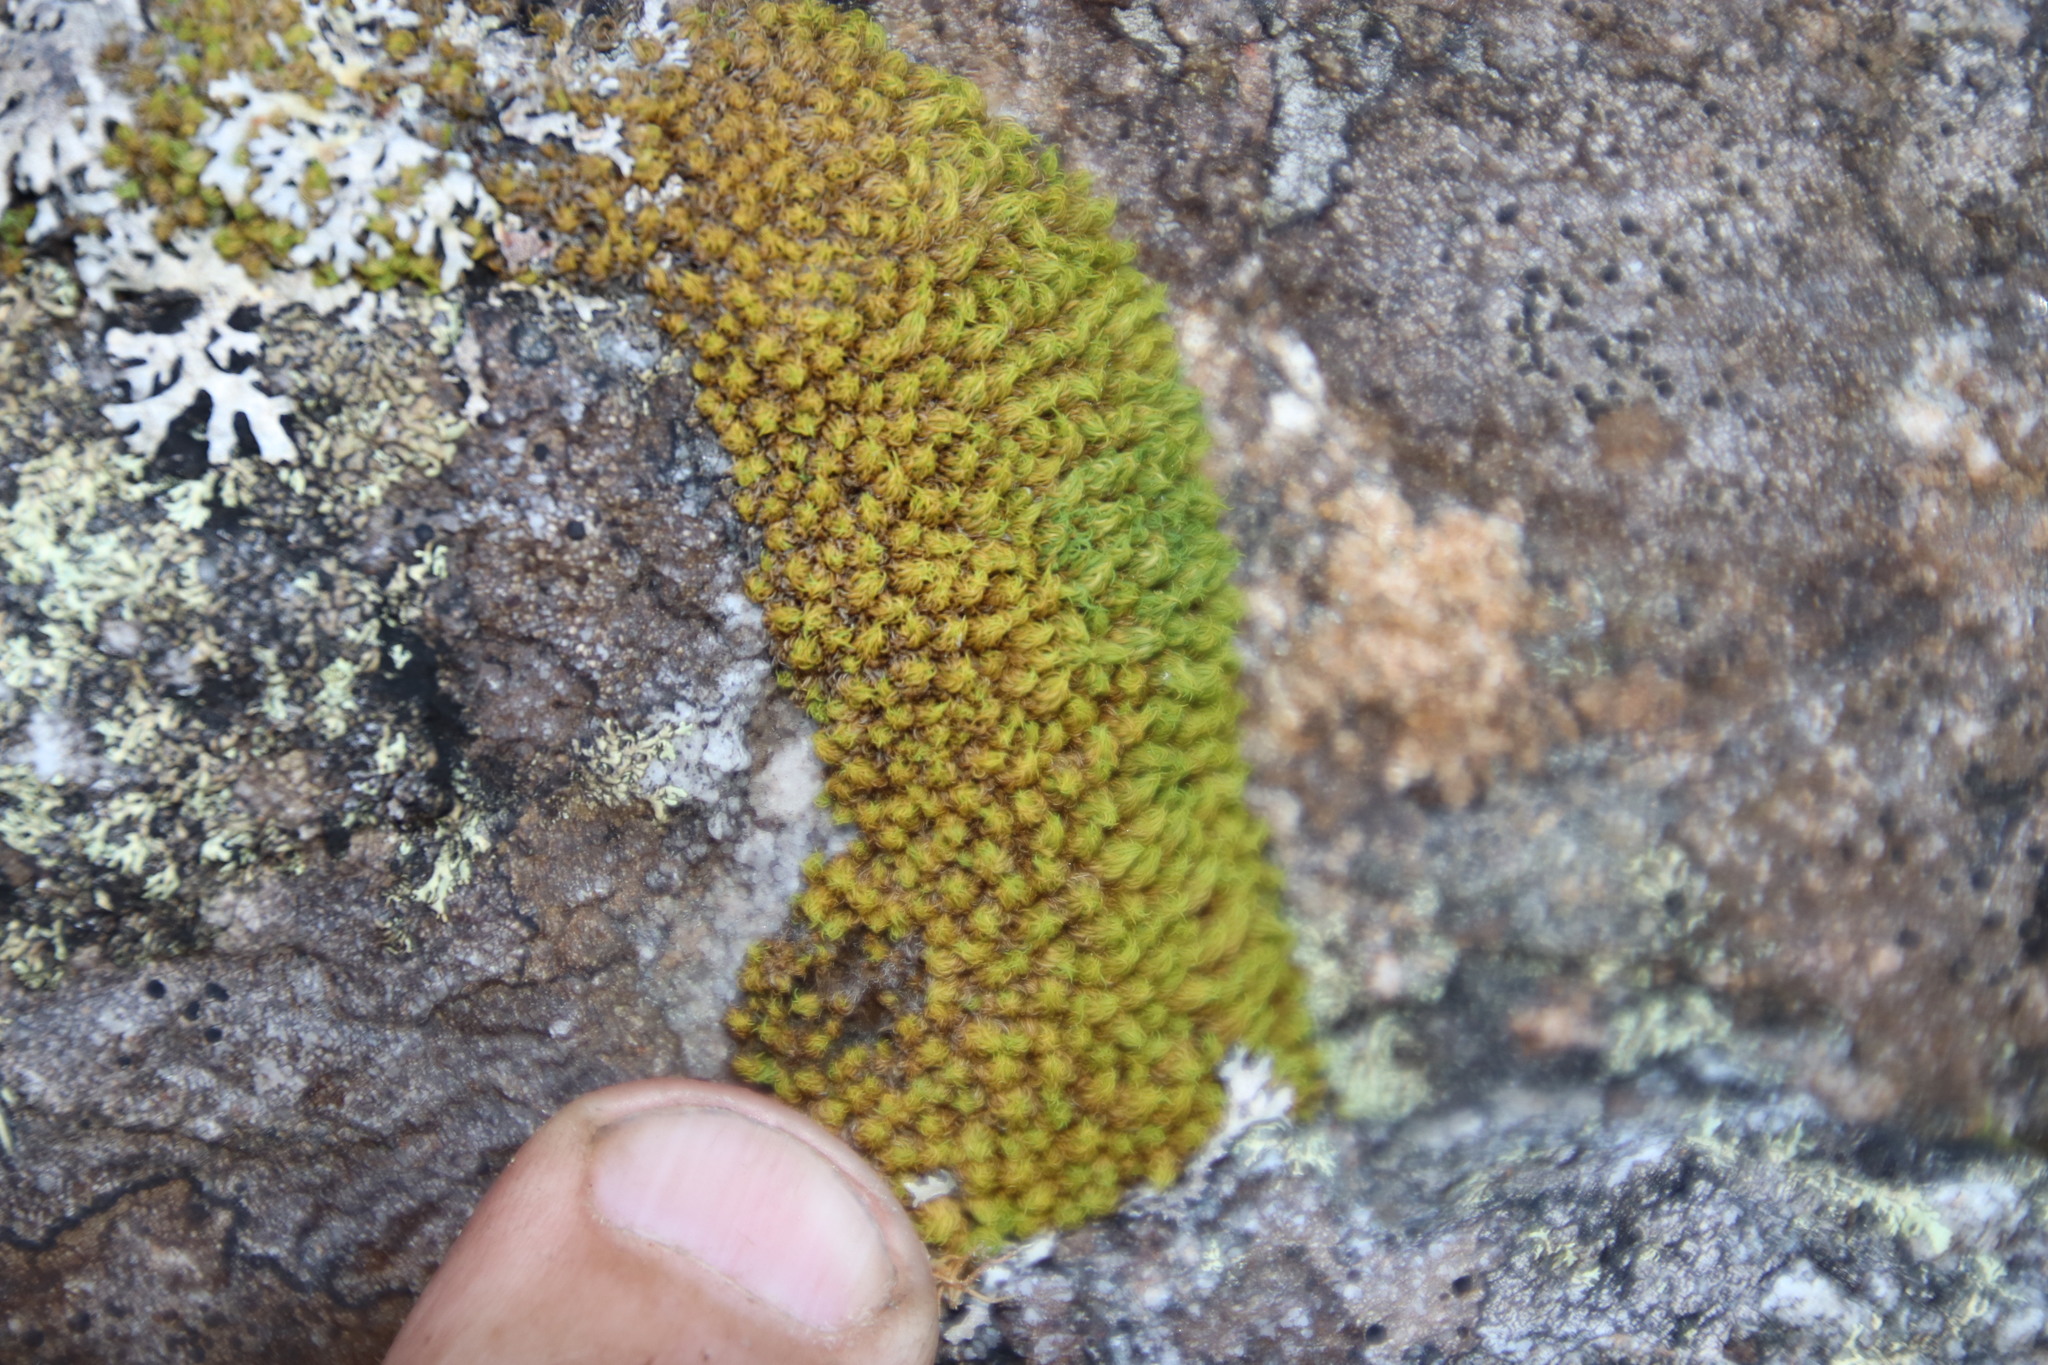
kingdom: Plantae
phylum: Bryophyta
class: Bryopsida
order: Dicranales
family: Hypodontiaceae
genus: Hypodontium
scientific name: Hypodontium pomiforme
